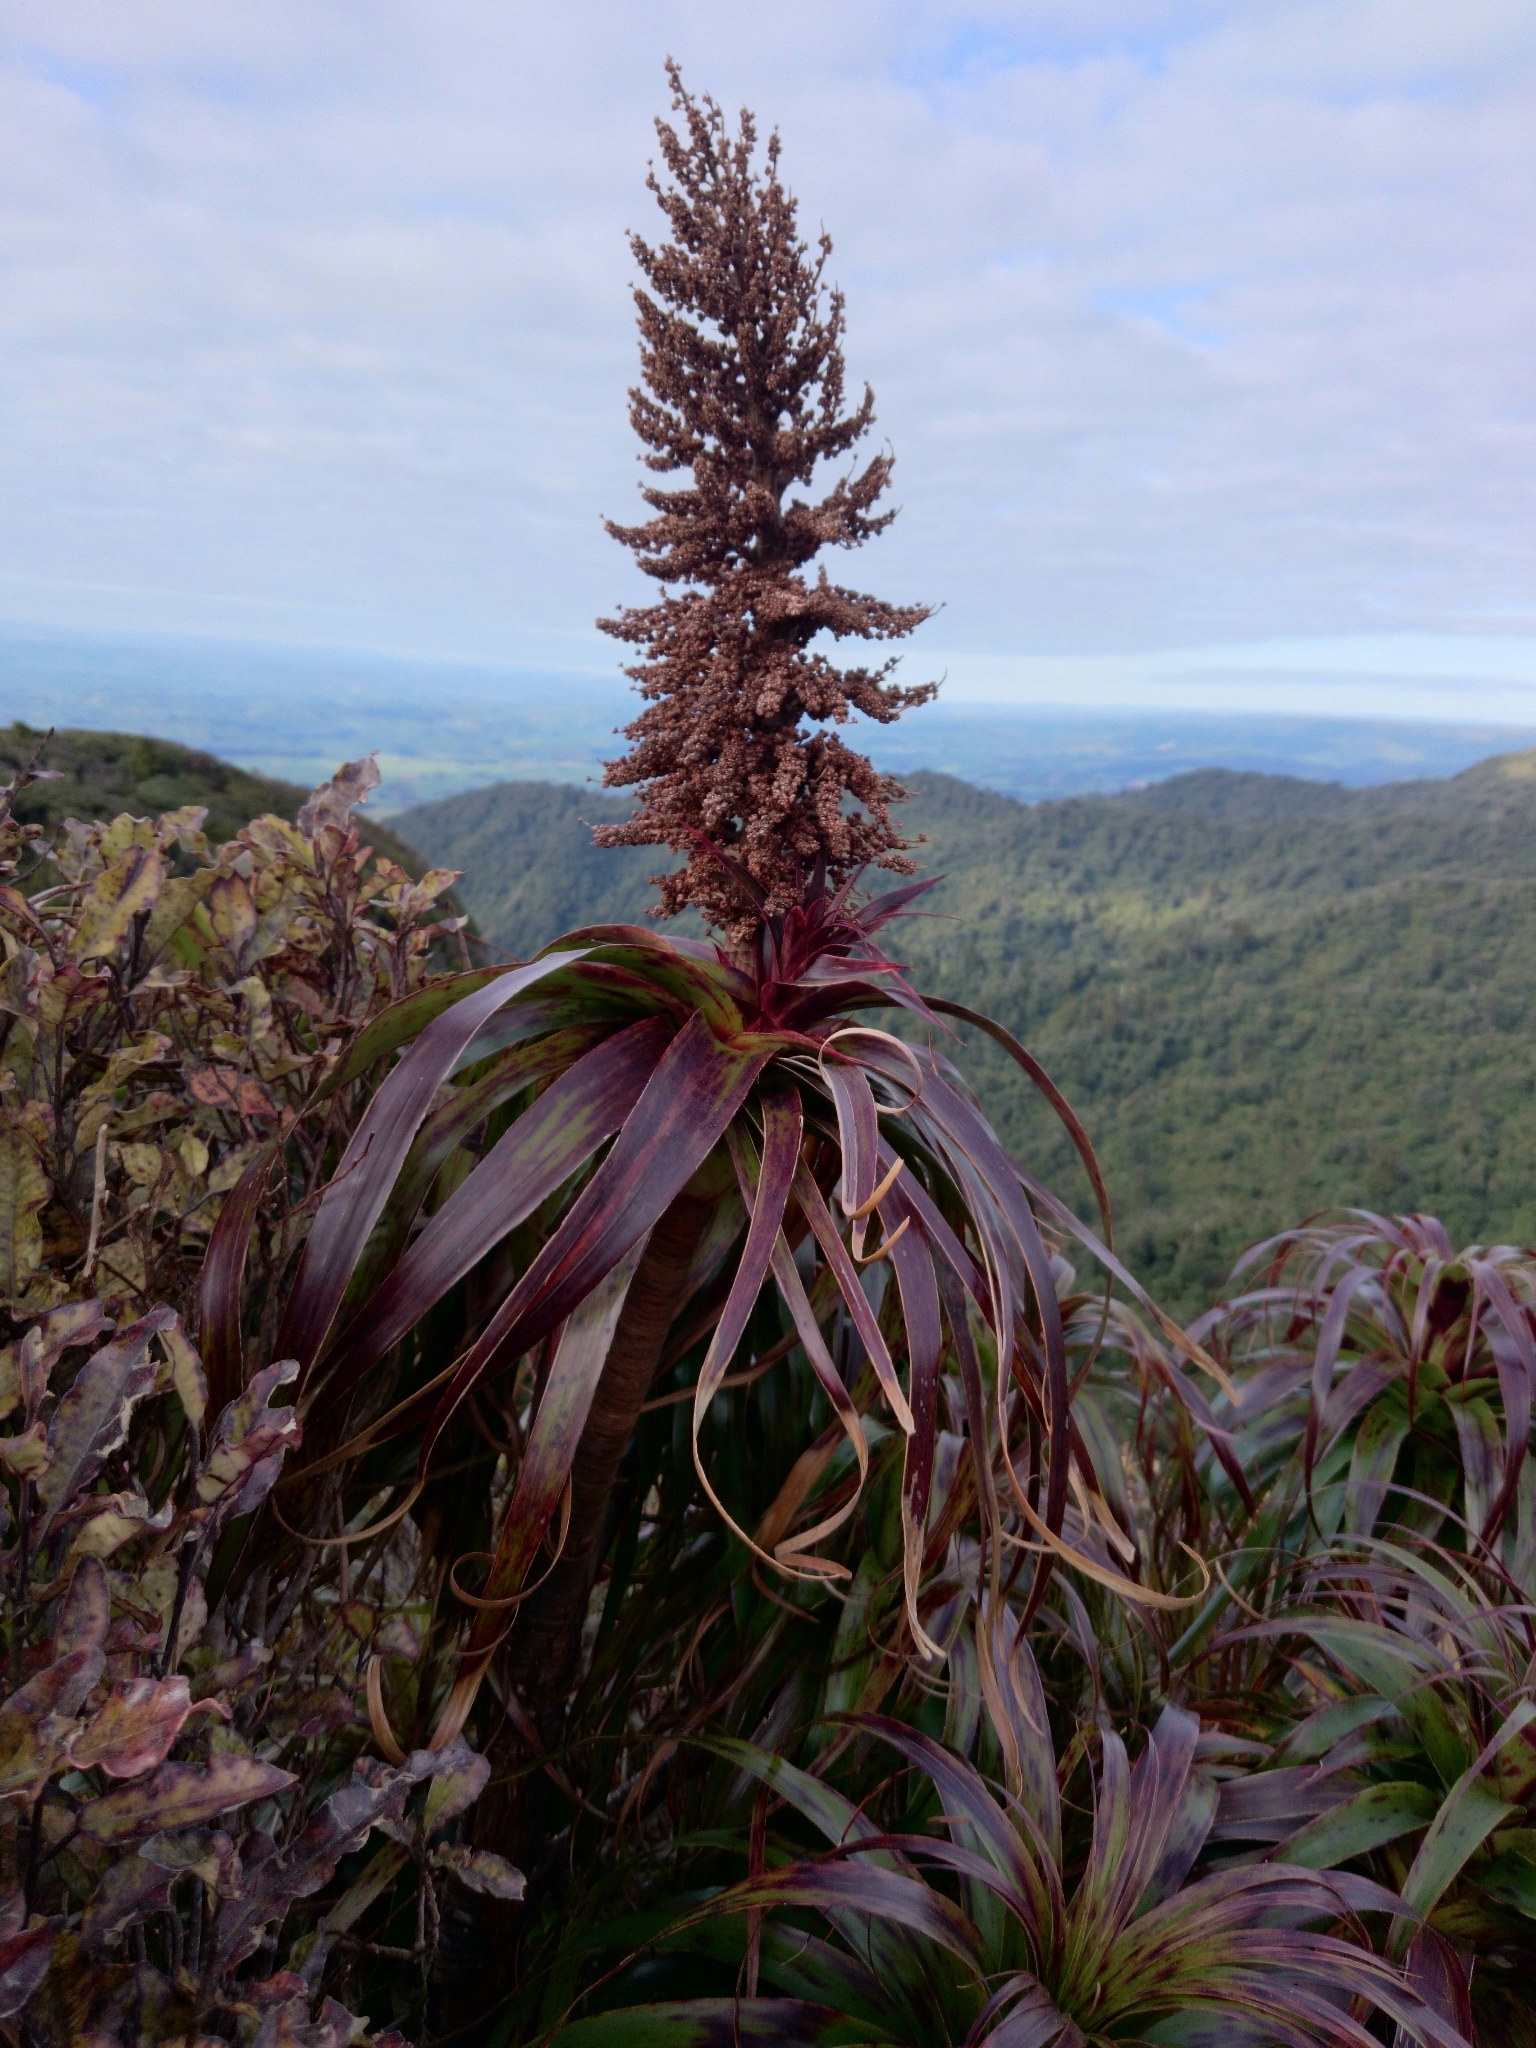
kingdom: Plantae
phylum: Tracheophyta
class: Magnoliopsida
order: Ericales
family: Ericaceae
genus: Dracophyllum
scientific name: Dracophyllum traversii
